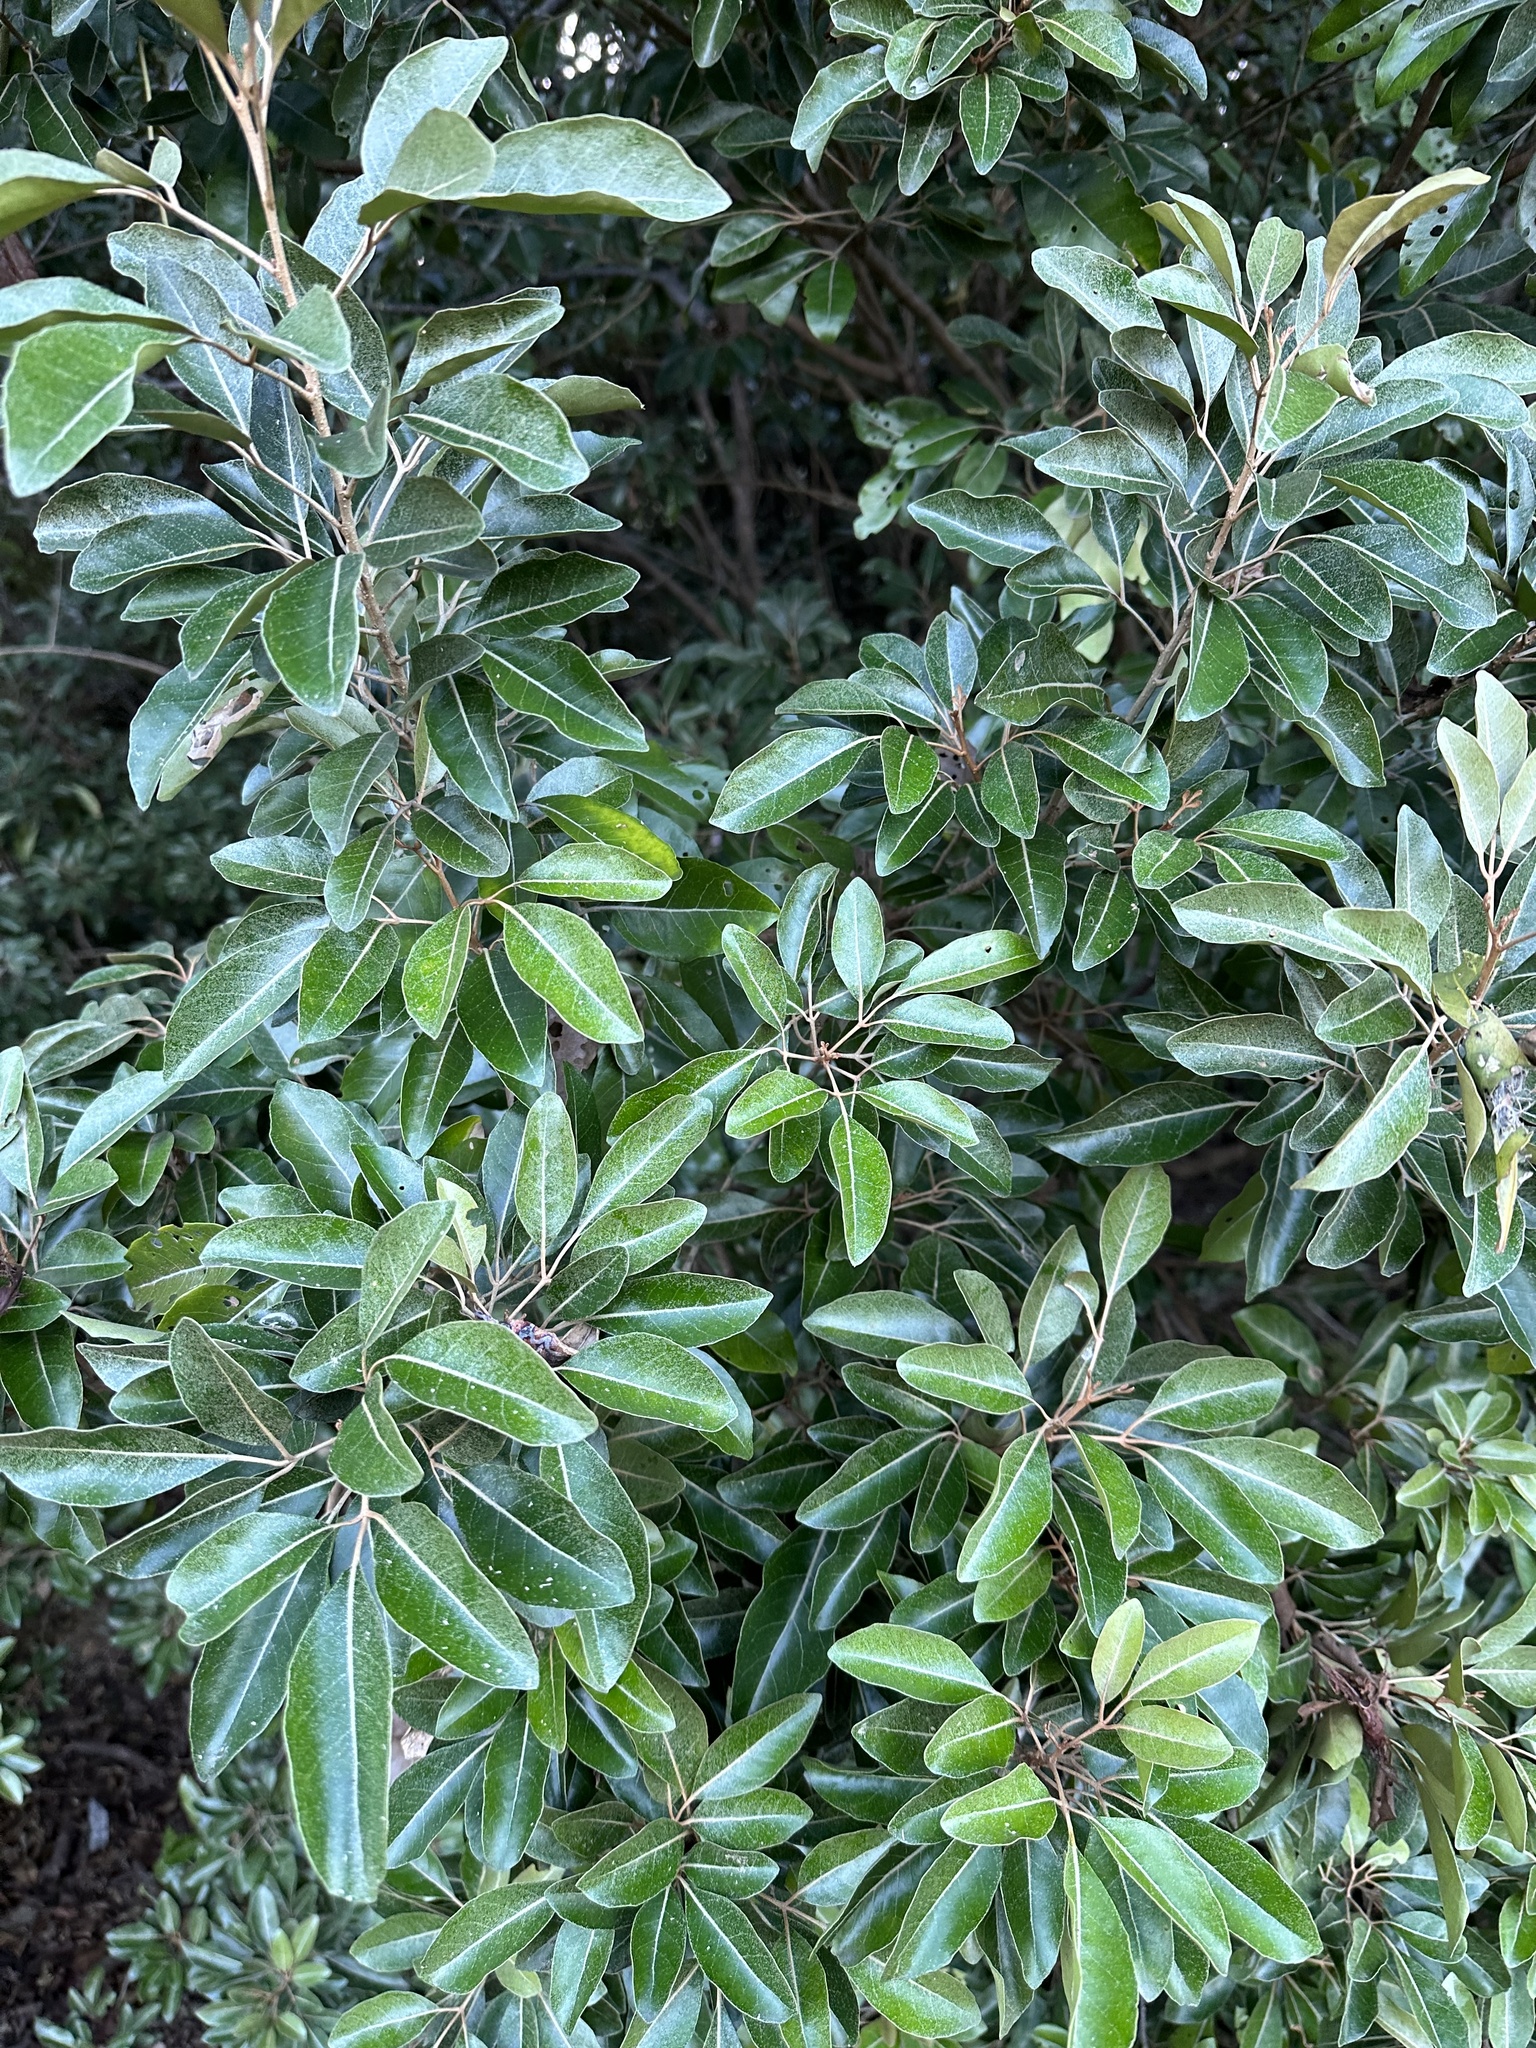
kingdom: Plantae
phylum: Tracheophyta
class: Magnoliopsida
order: Sapindales
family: Meliaceae
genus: Aglaia
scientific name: Aglaia elaeagnoidea
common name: Droopyleaf
